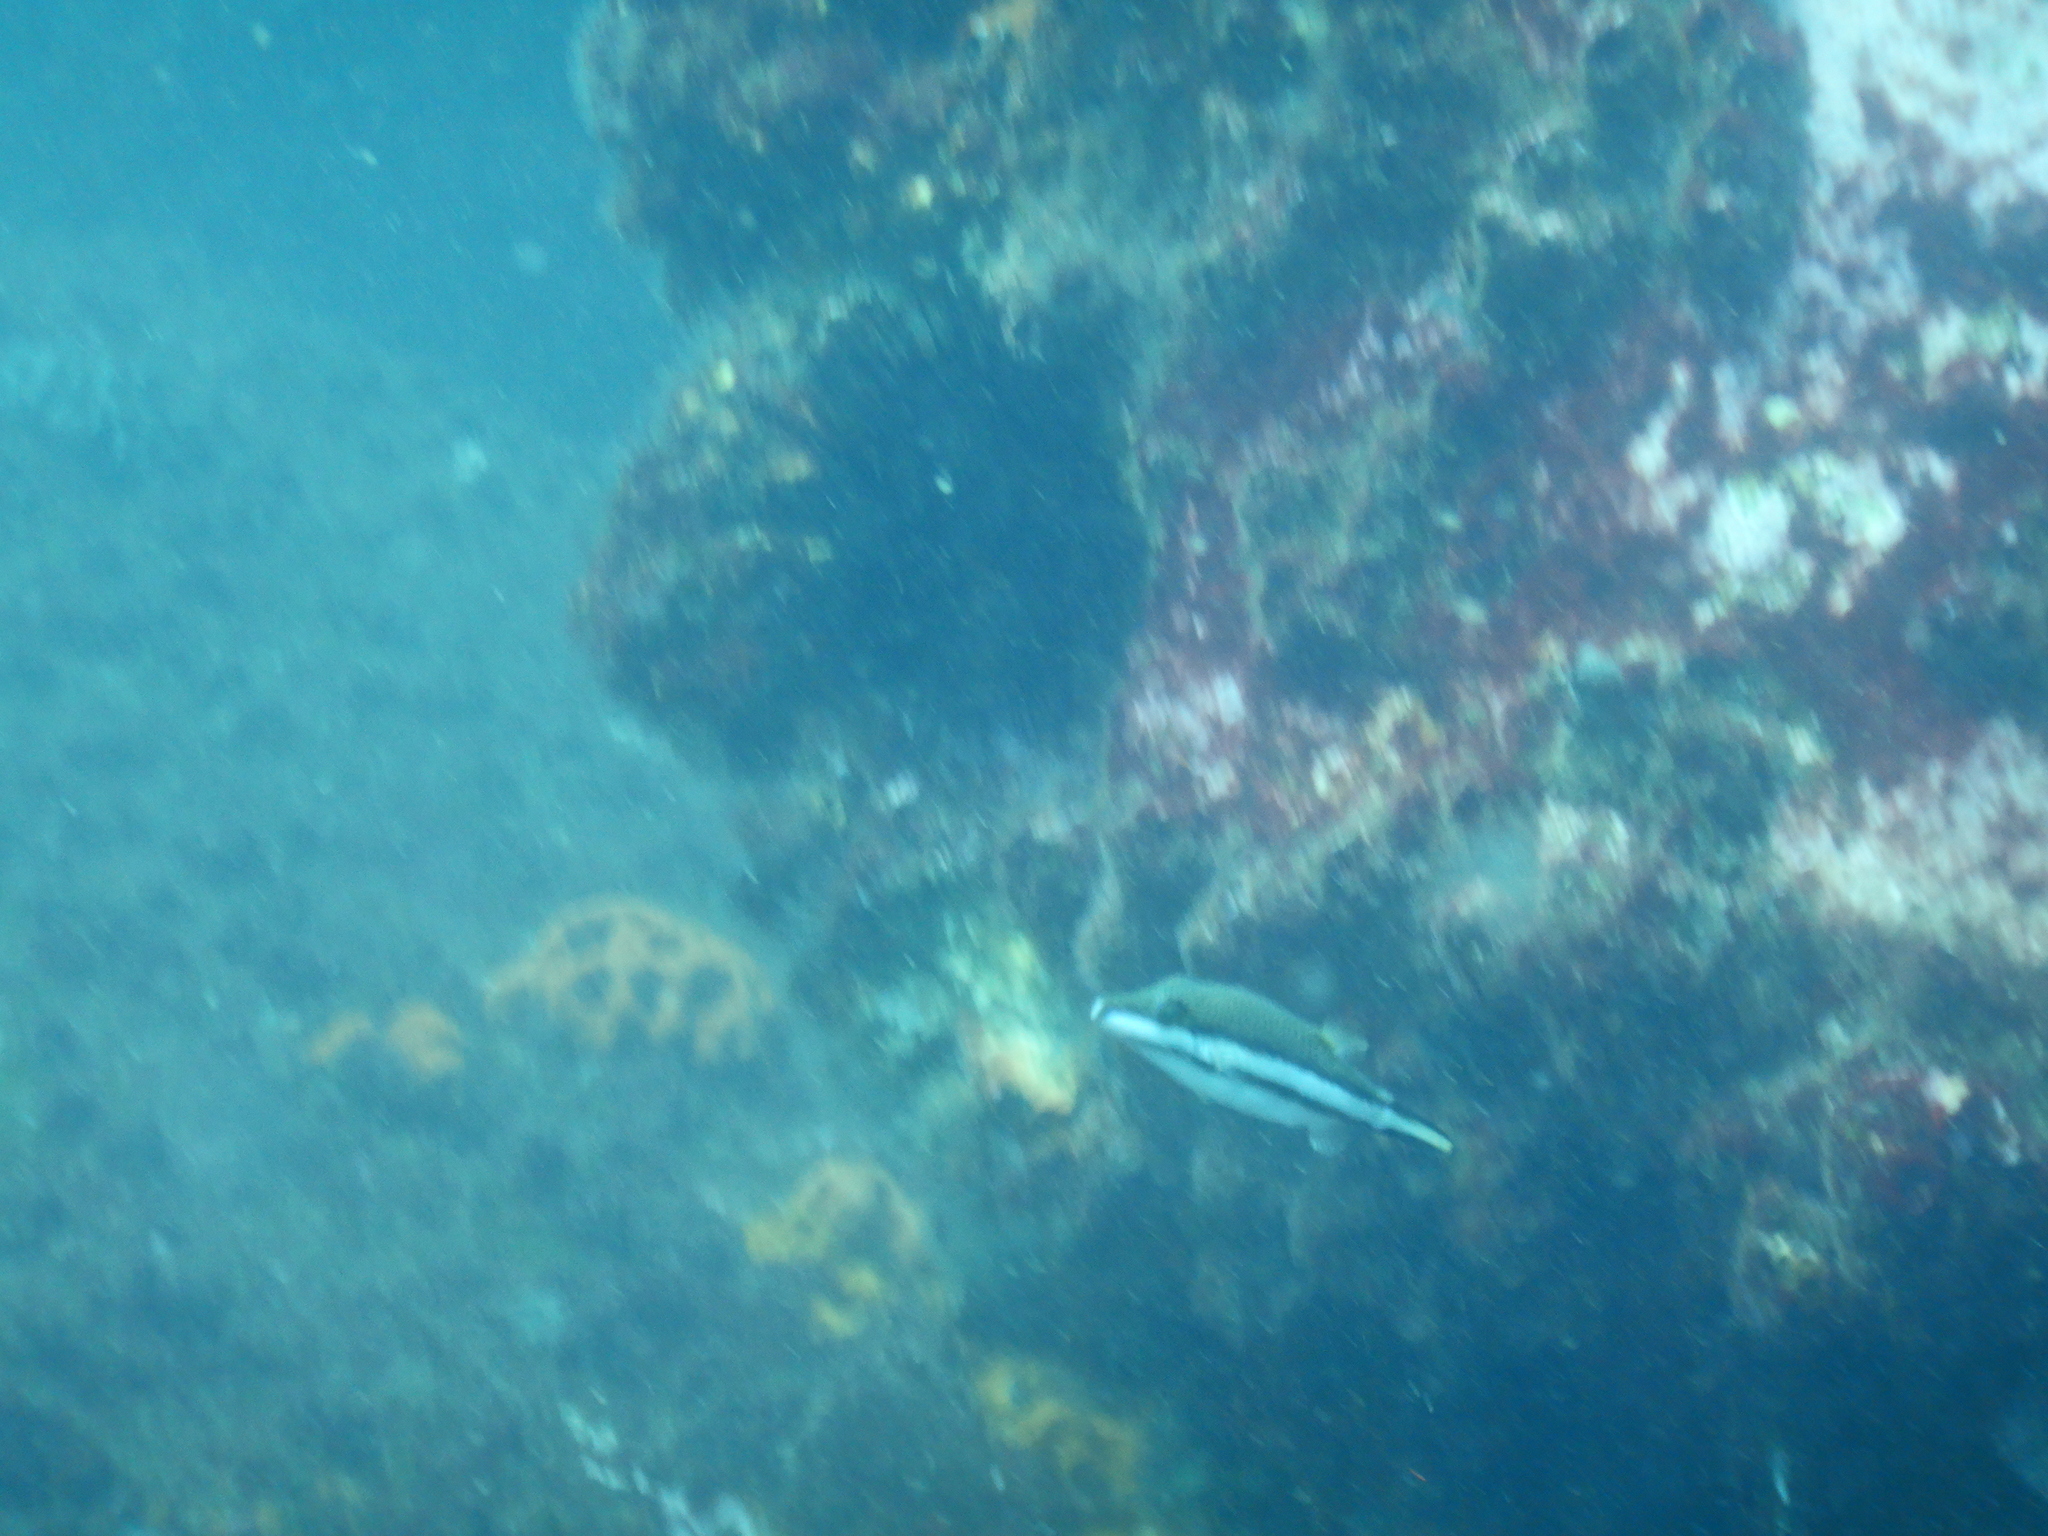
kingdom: Animalia
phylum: Chordata
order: Tetraodontiformes
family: Tetraodontidae
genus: Canthigaster
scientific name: Canthigaster callisterna
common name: Clown toado
